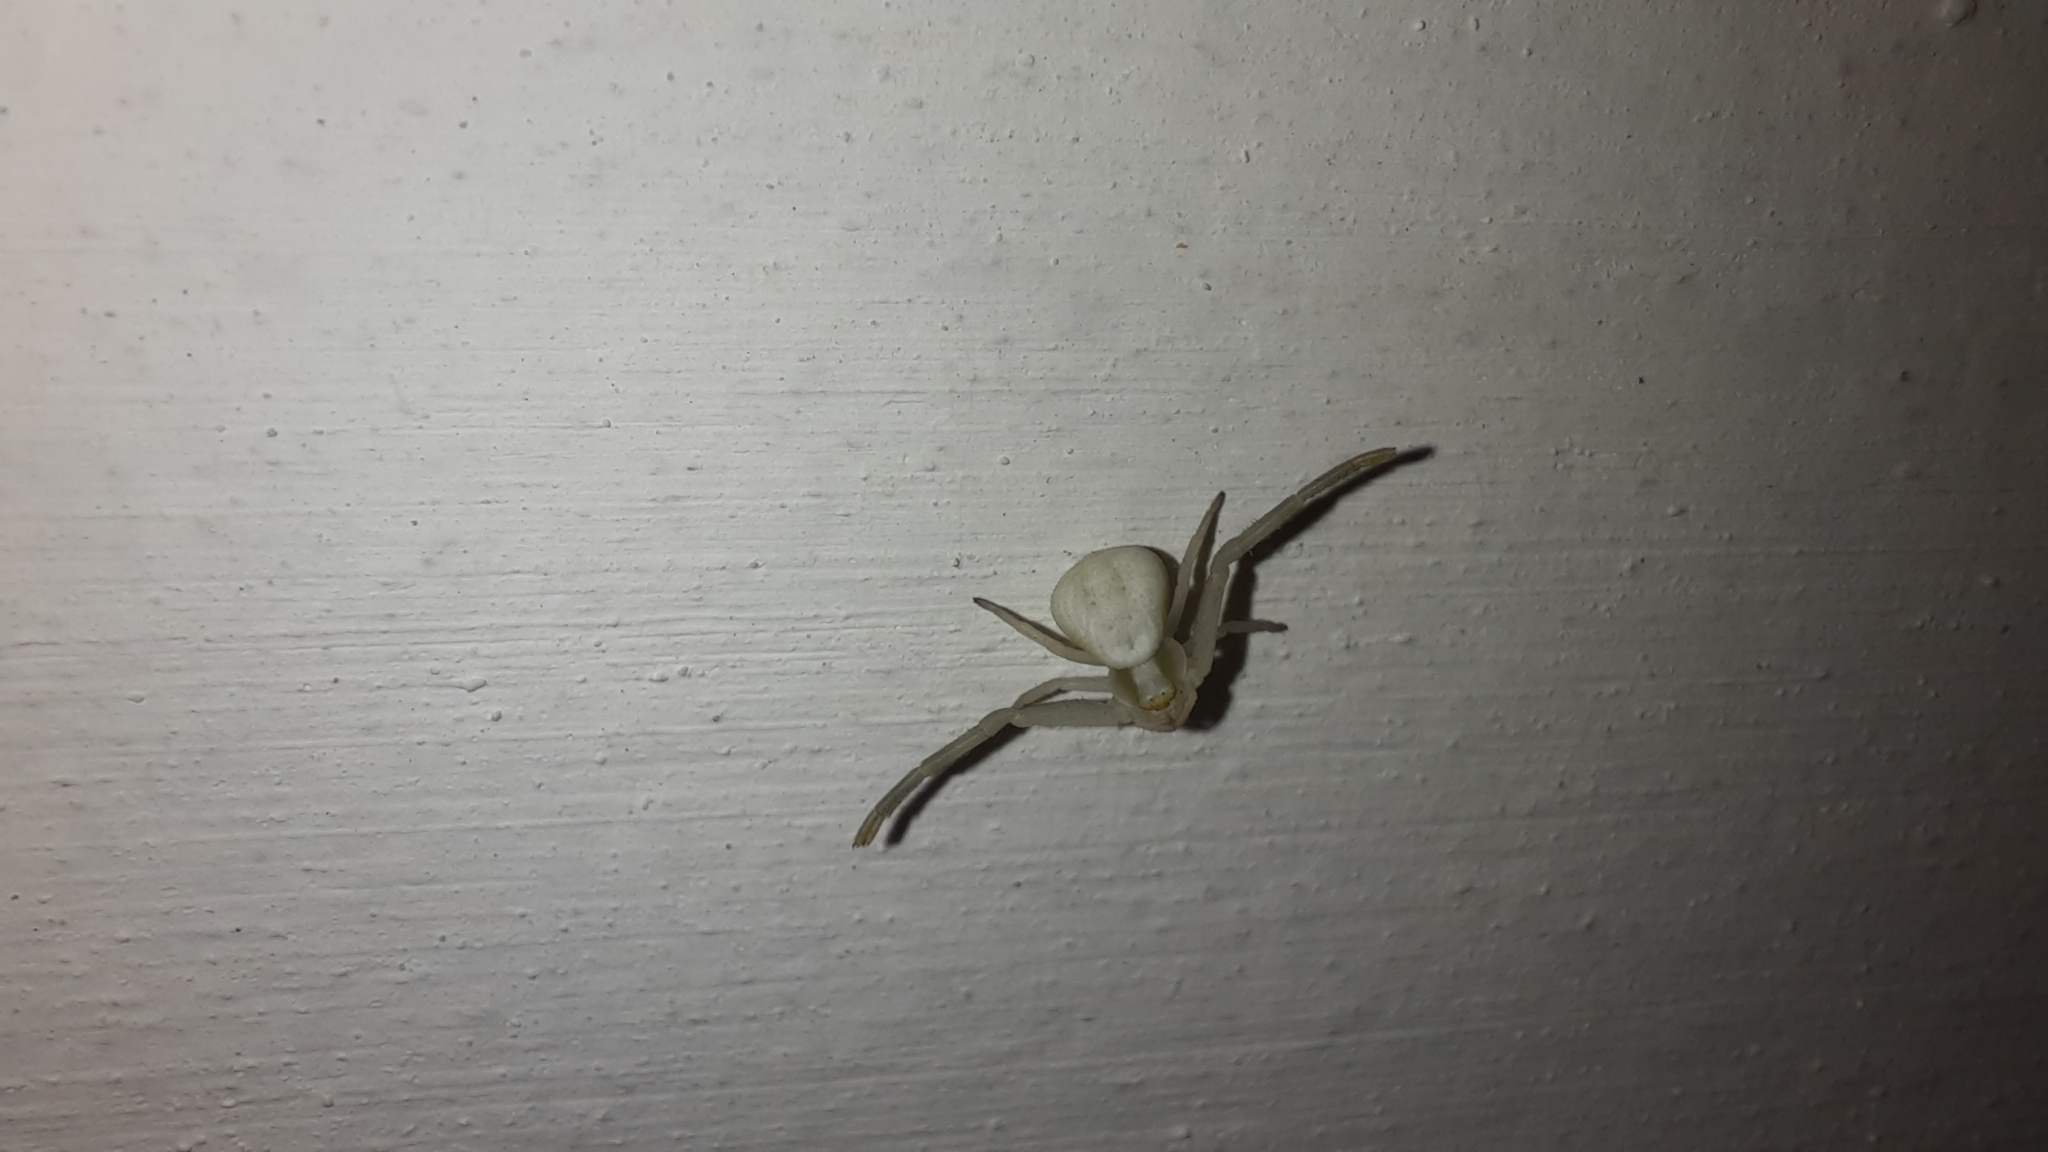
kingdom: Animalia
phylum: Arthropoda
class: Arachnida
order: Araneae
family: Thomisidae
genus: Misumena
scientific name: Misumena vatia
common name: Goldenrod crab spider
